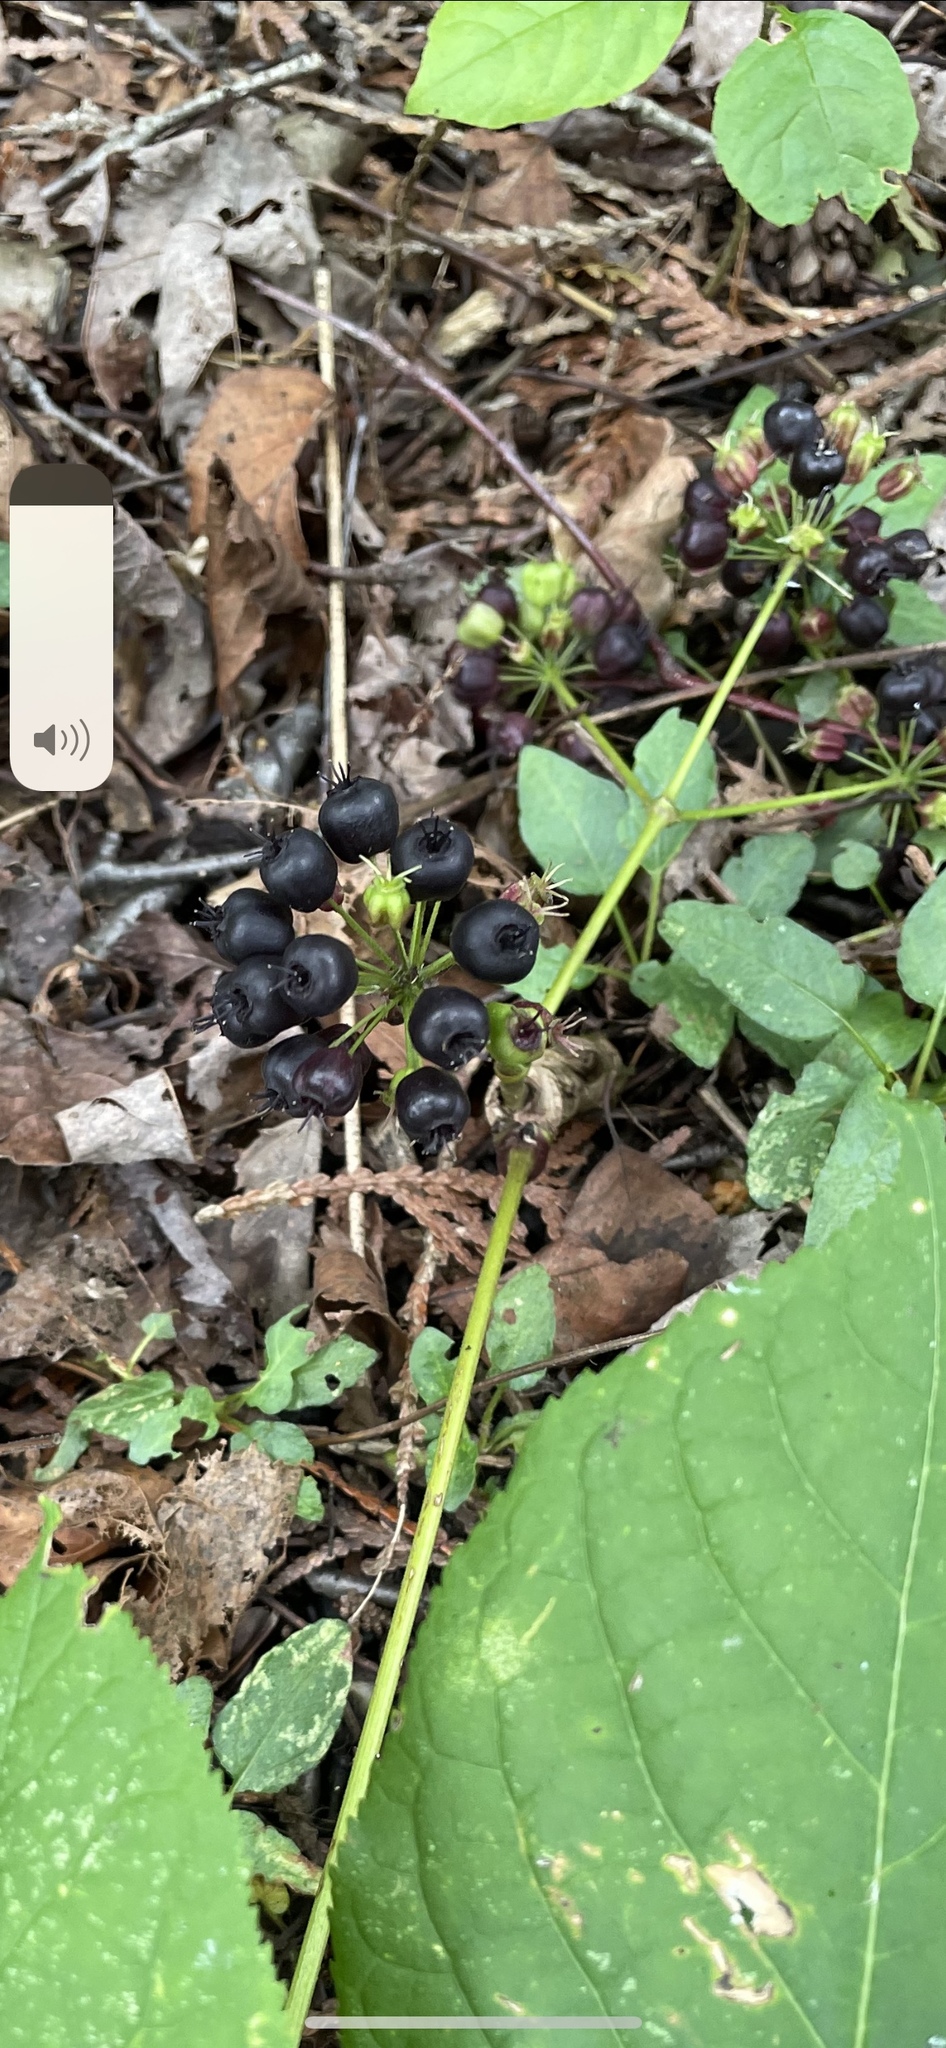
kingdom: Plantae
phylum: Tracheophyta
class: Magnoliopsida
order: Apiales
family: Araliaceae
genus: Aralia
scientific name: Aralia nudicaulis
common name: Wild sarsaparilla
